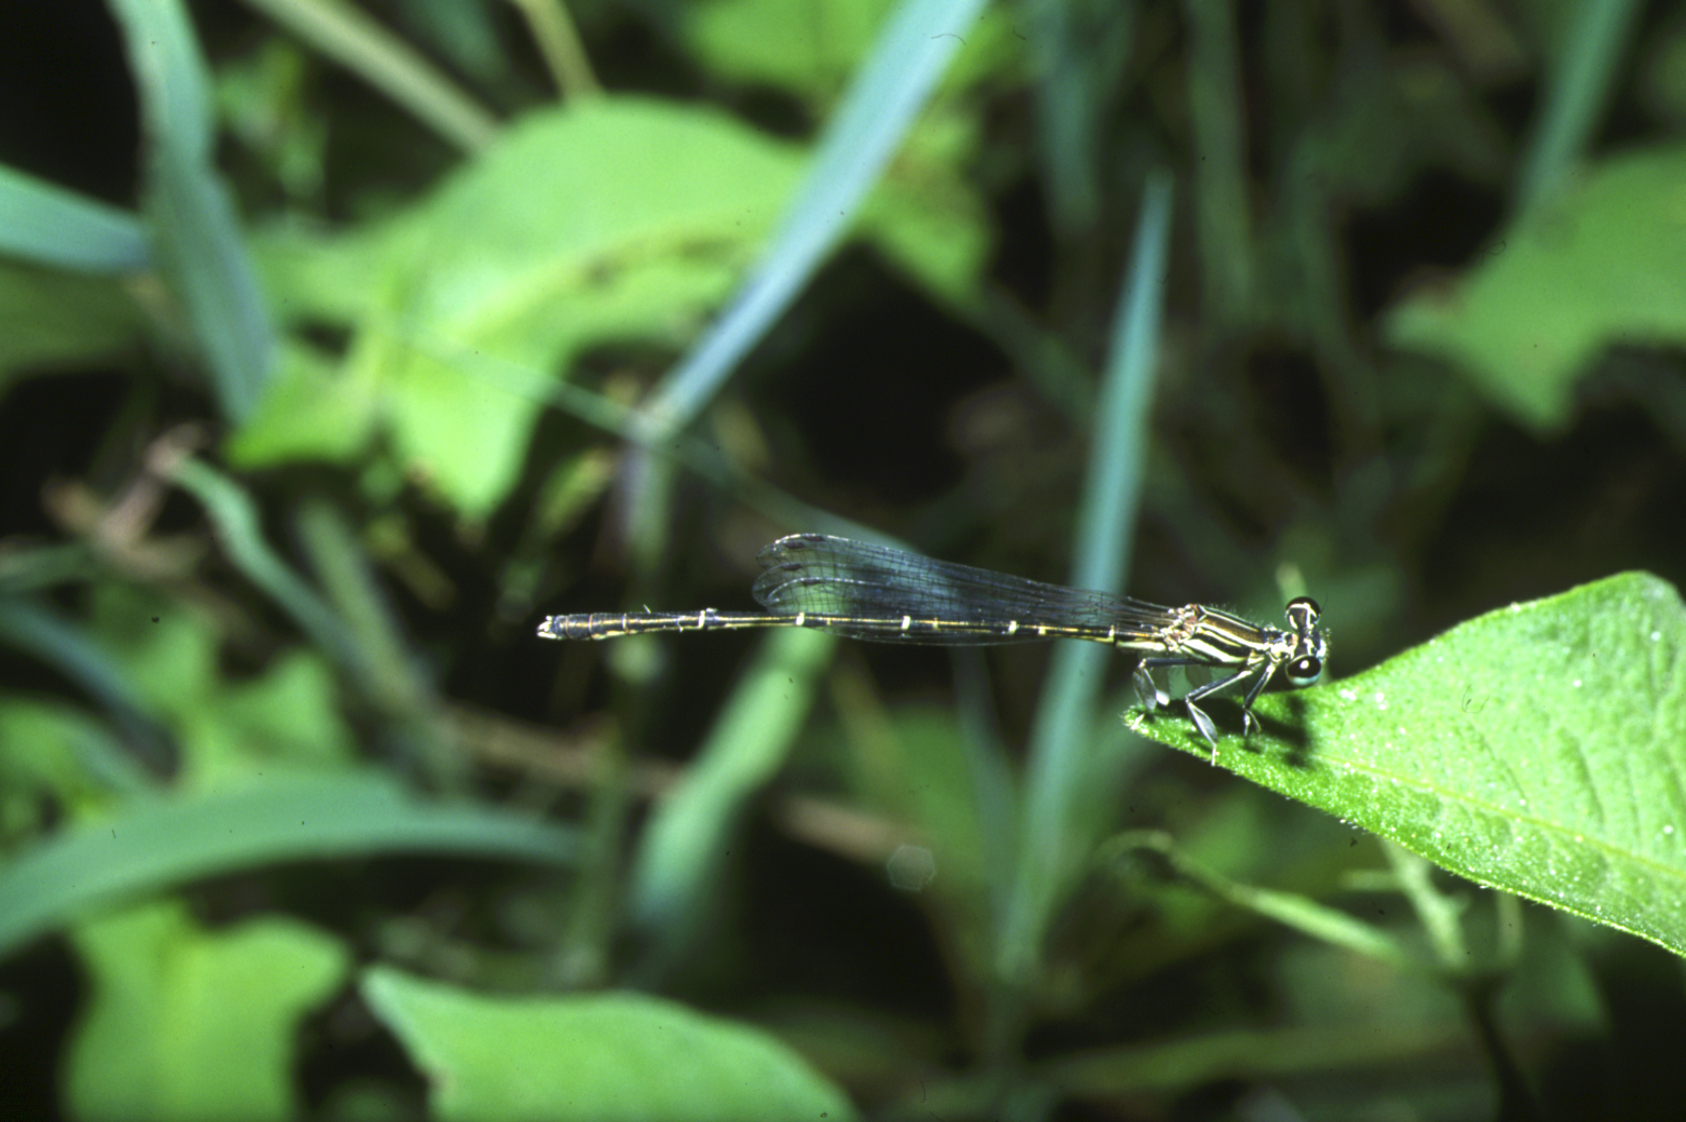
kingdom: Animalia
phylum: Arthropoda
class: Insecta
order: Odonata
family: Platycnemididae
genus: Platycnemis
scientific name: Platycnemis phyllopoda
